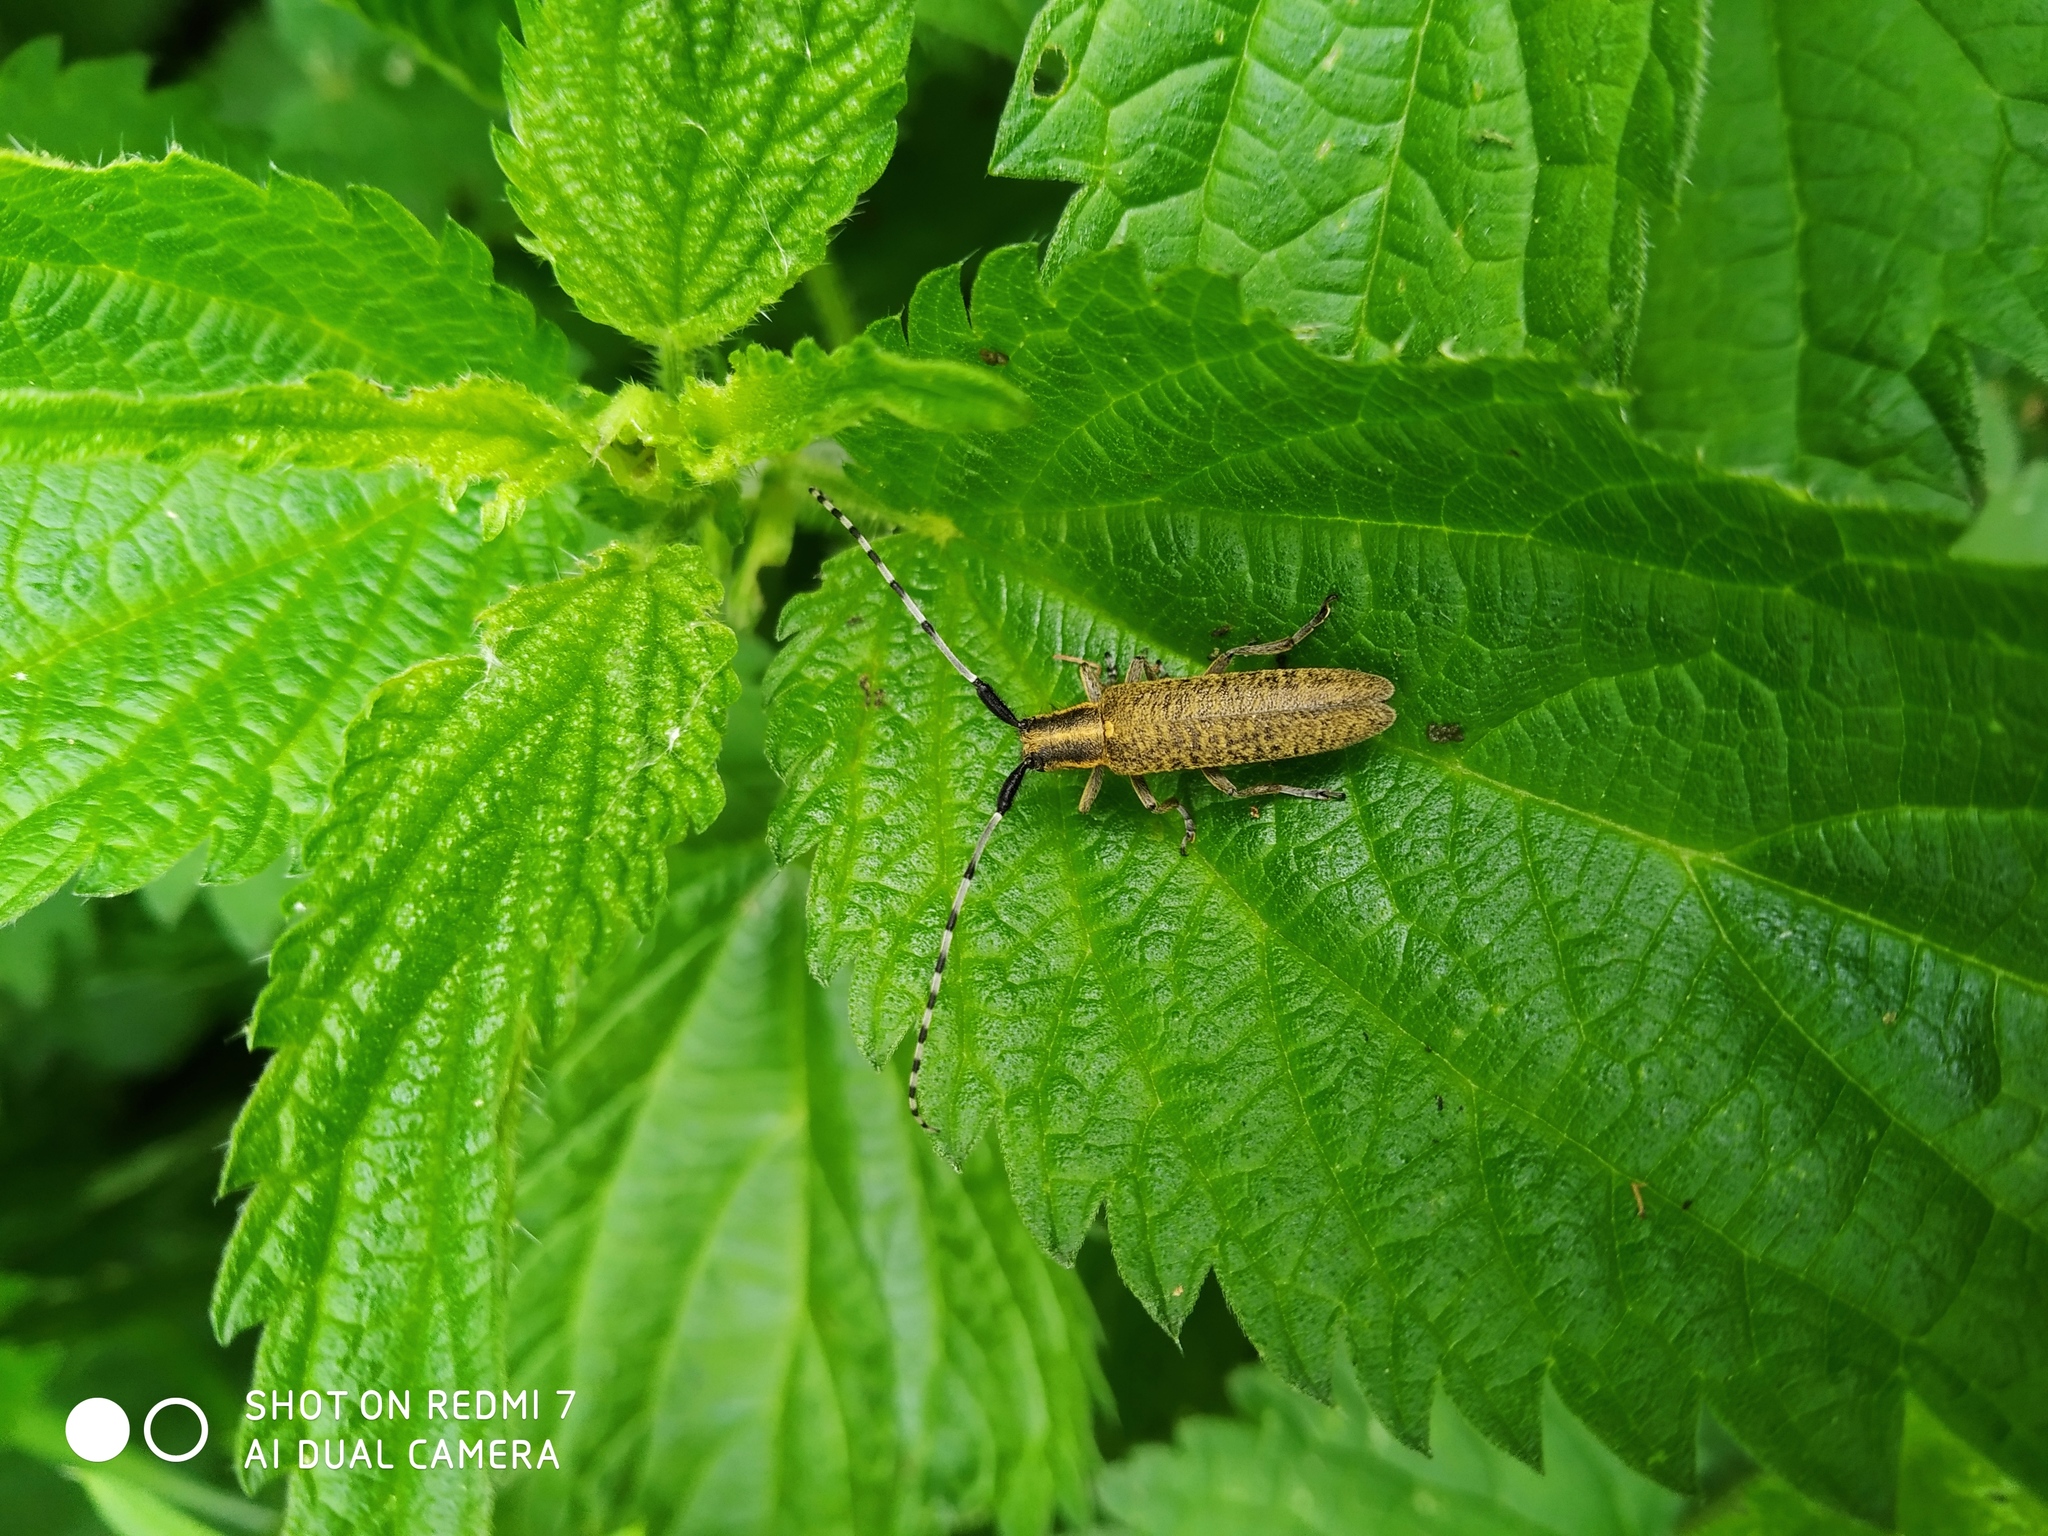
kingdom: Animalia
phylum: Arthropoda
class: Insecta
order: Coleoptera
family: Cerambycidae
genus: Agapanthia
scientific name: Agapanthia villosoviridescens
